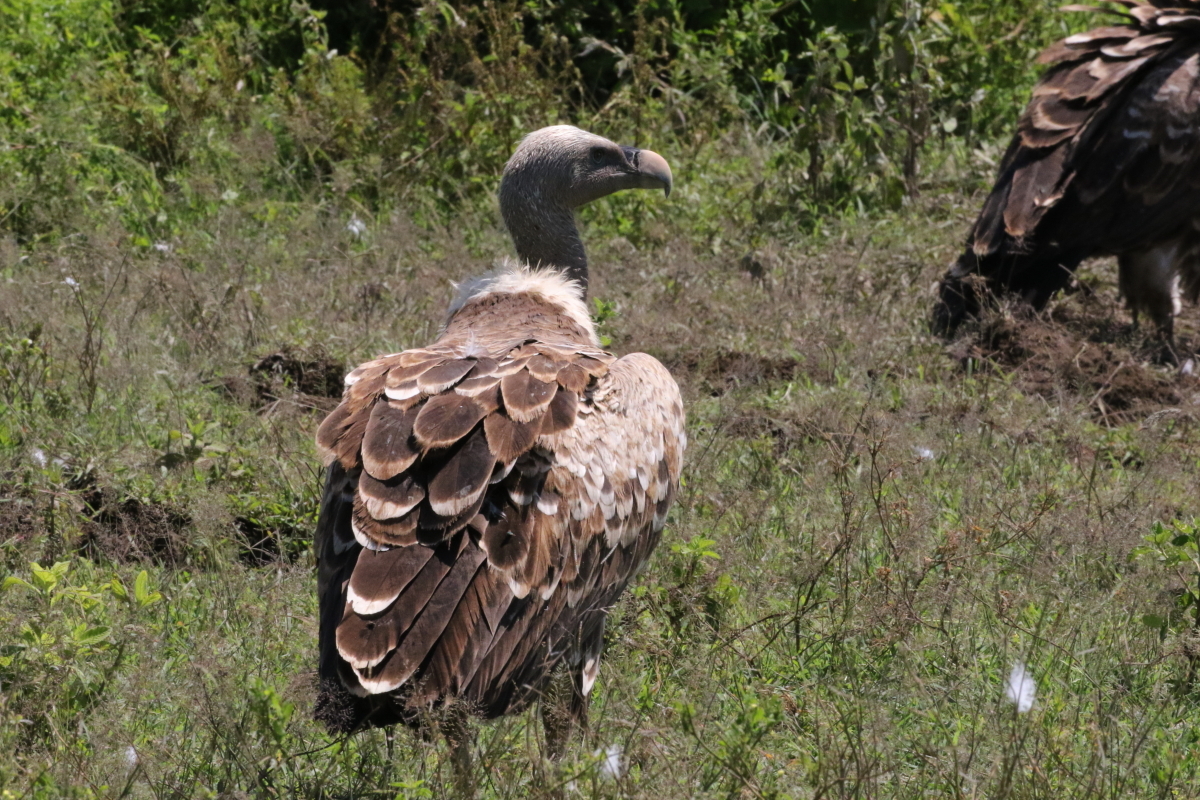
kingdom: Animalia
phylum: Chordata
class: Aves
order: Accipitriformes
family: Accipitridae
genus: Gyps
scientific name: Gyps rueppellii
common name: Rüppell's vulture
